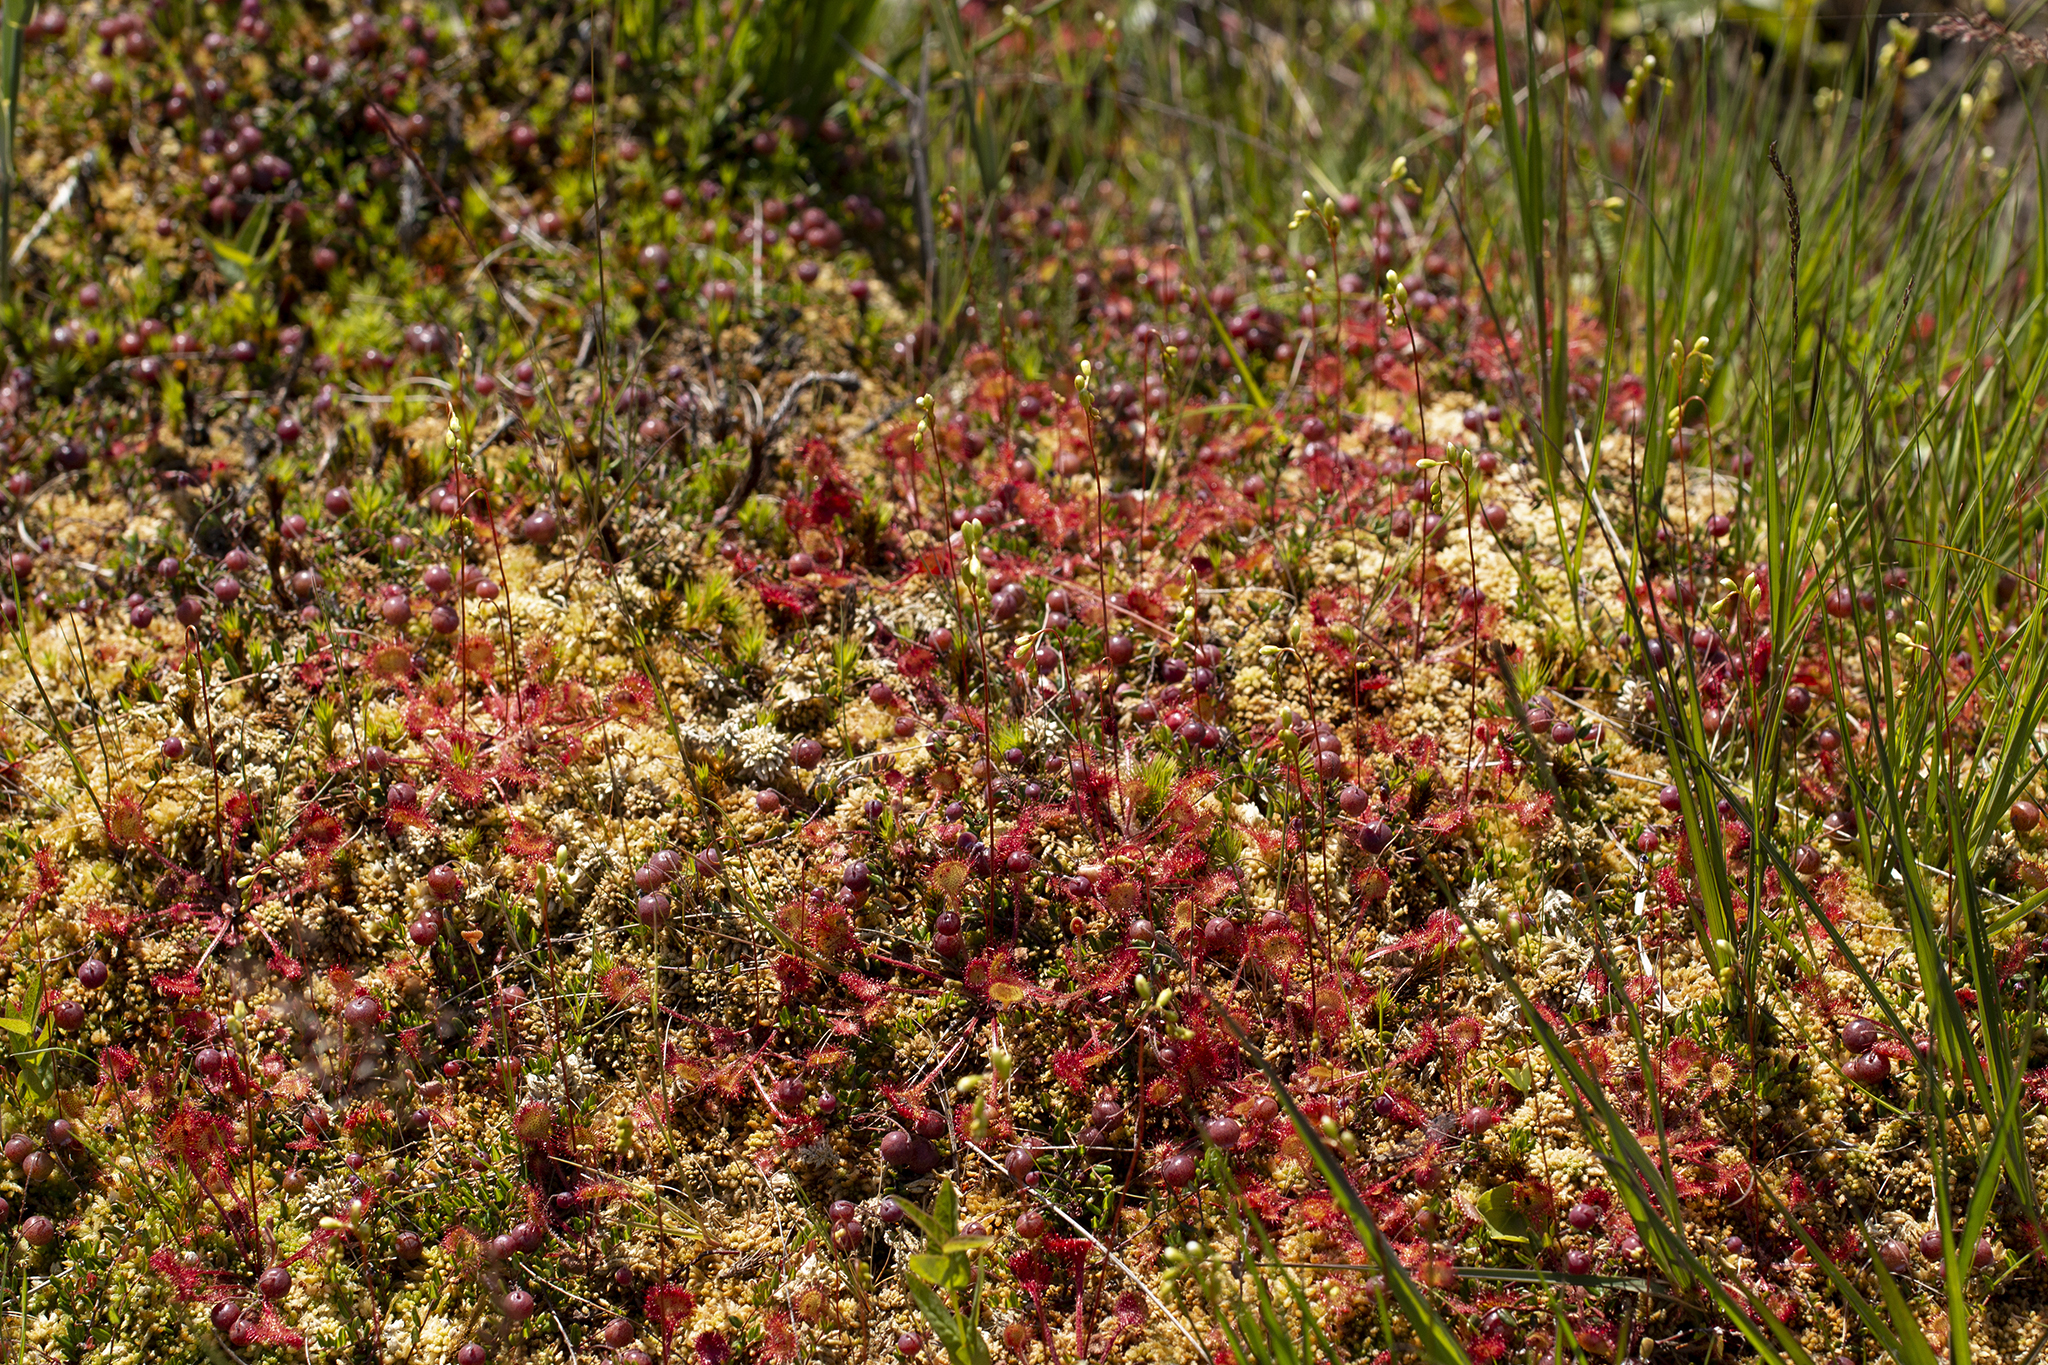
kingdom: Plantae
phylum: Tracheophyta
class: Magnoliopsida
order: Caryophyllales
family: Droseraceae
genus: Drosera
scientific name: Drosera rotundifolia
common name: Round-leaved sundew
